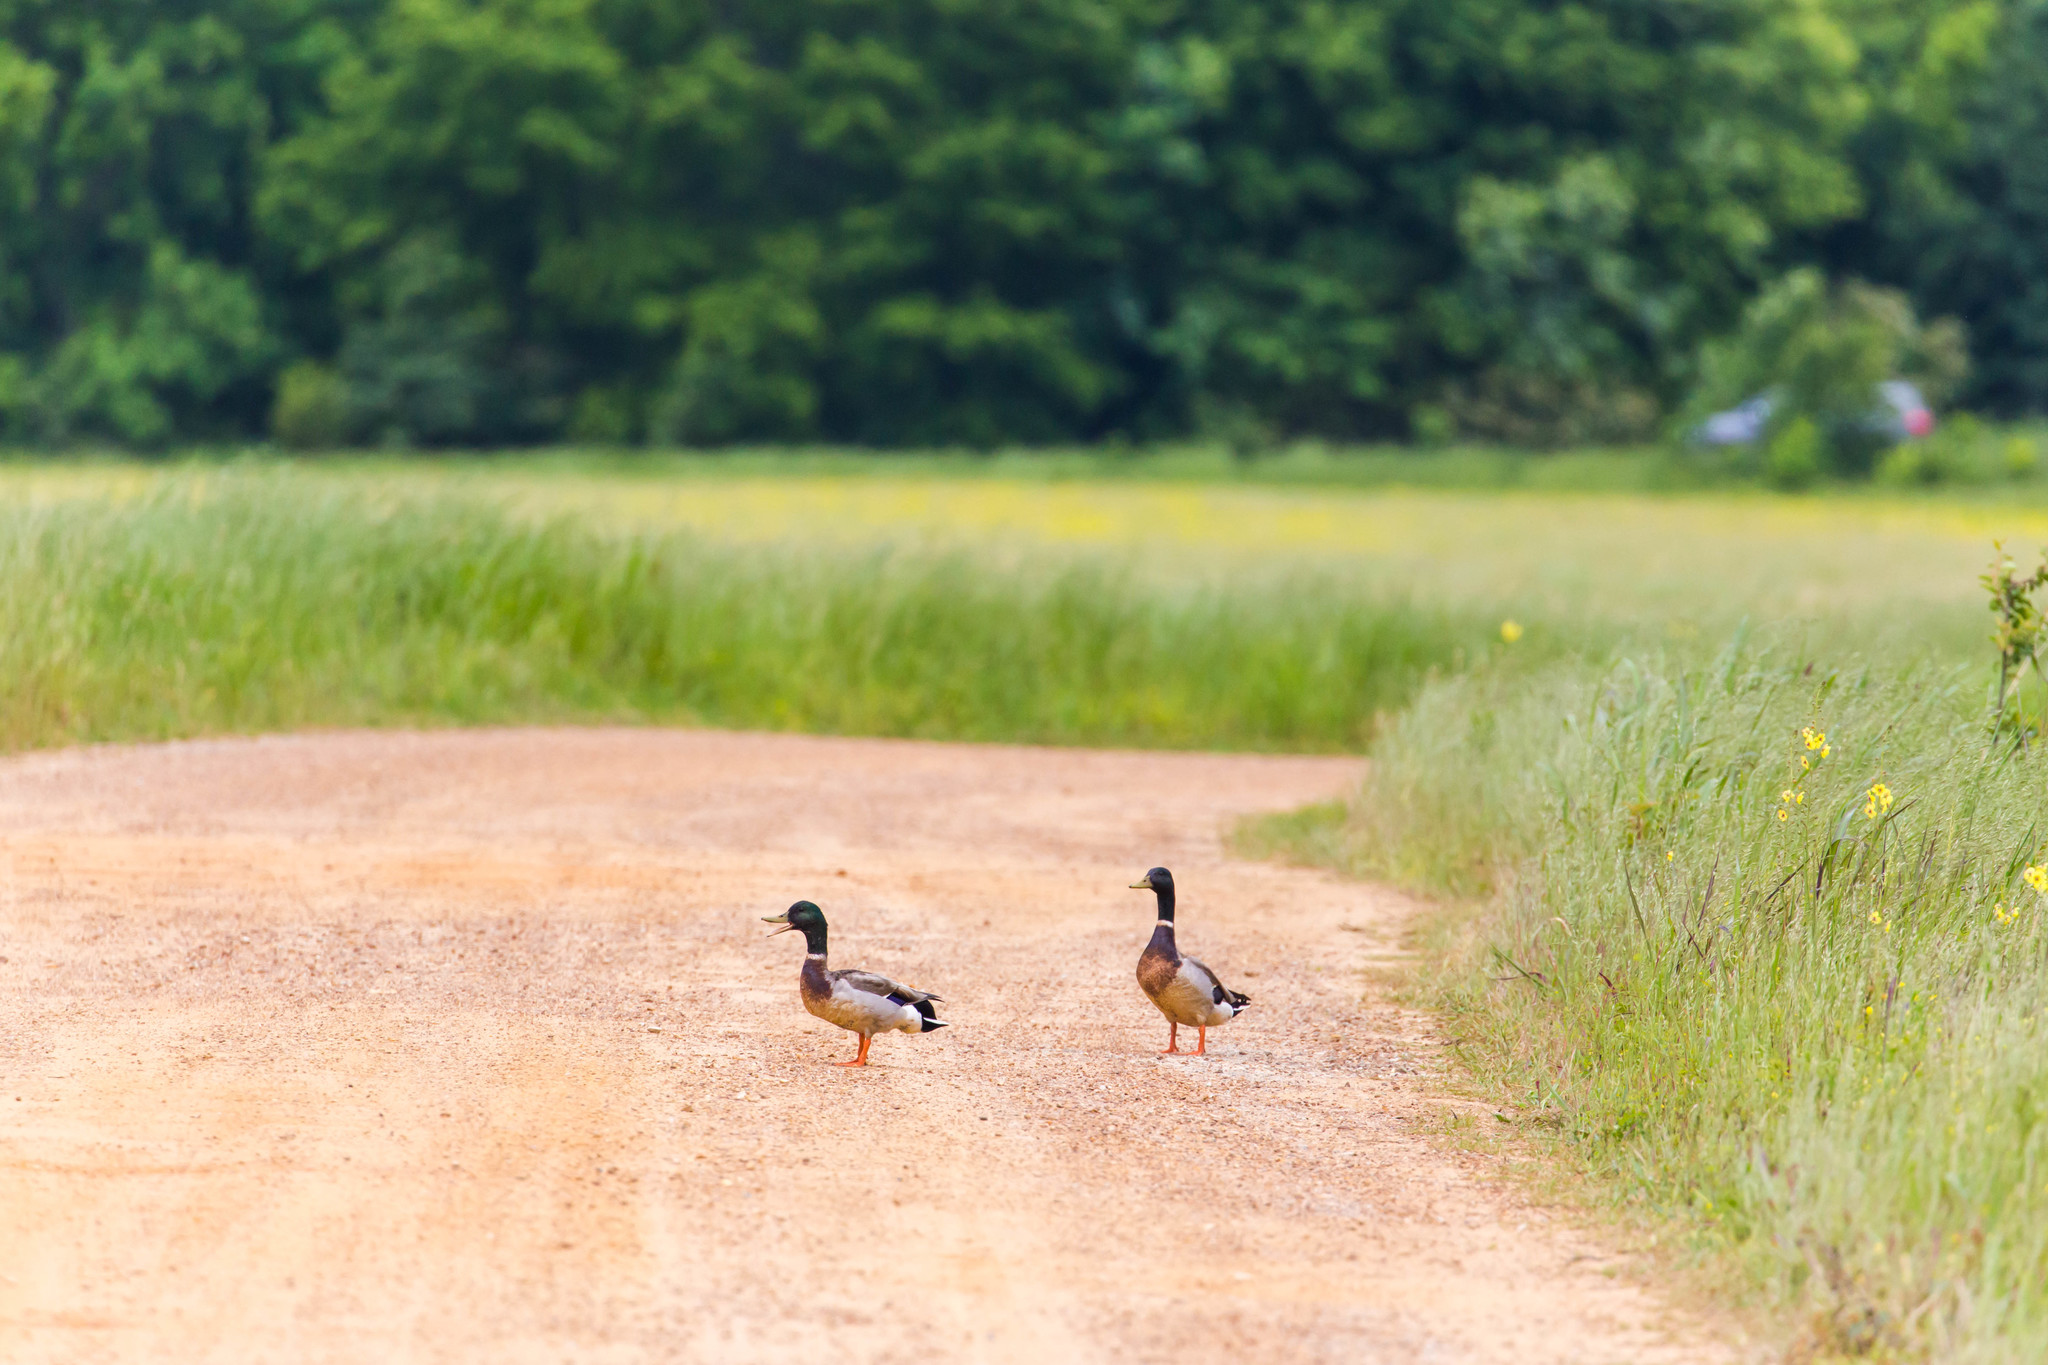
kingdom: Animalia
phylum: Chordata
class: Aves
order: Anseriformes
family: Anatidae
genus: Anas
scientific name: Anas platyrhynchos
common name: Mallard
